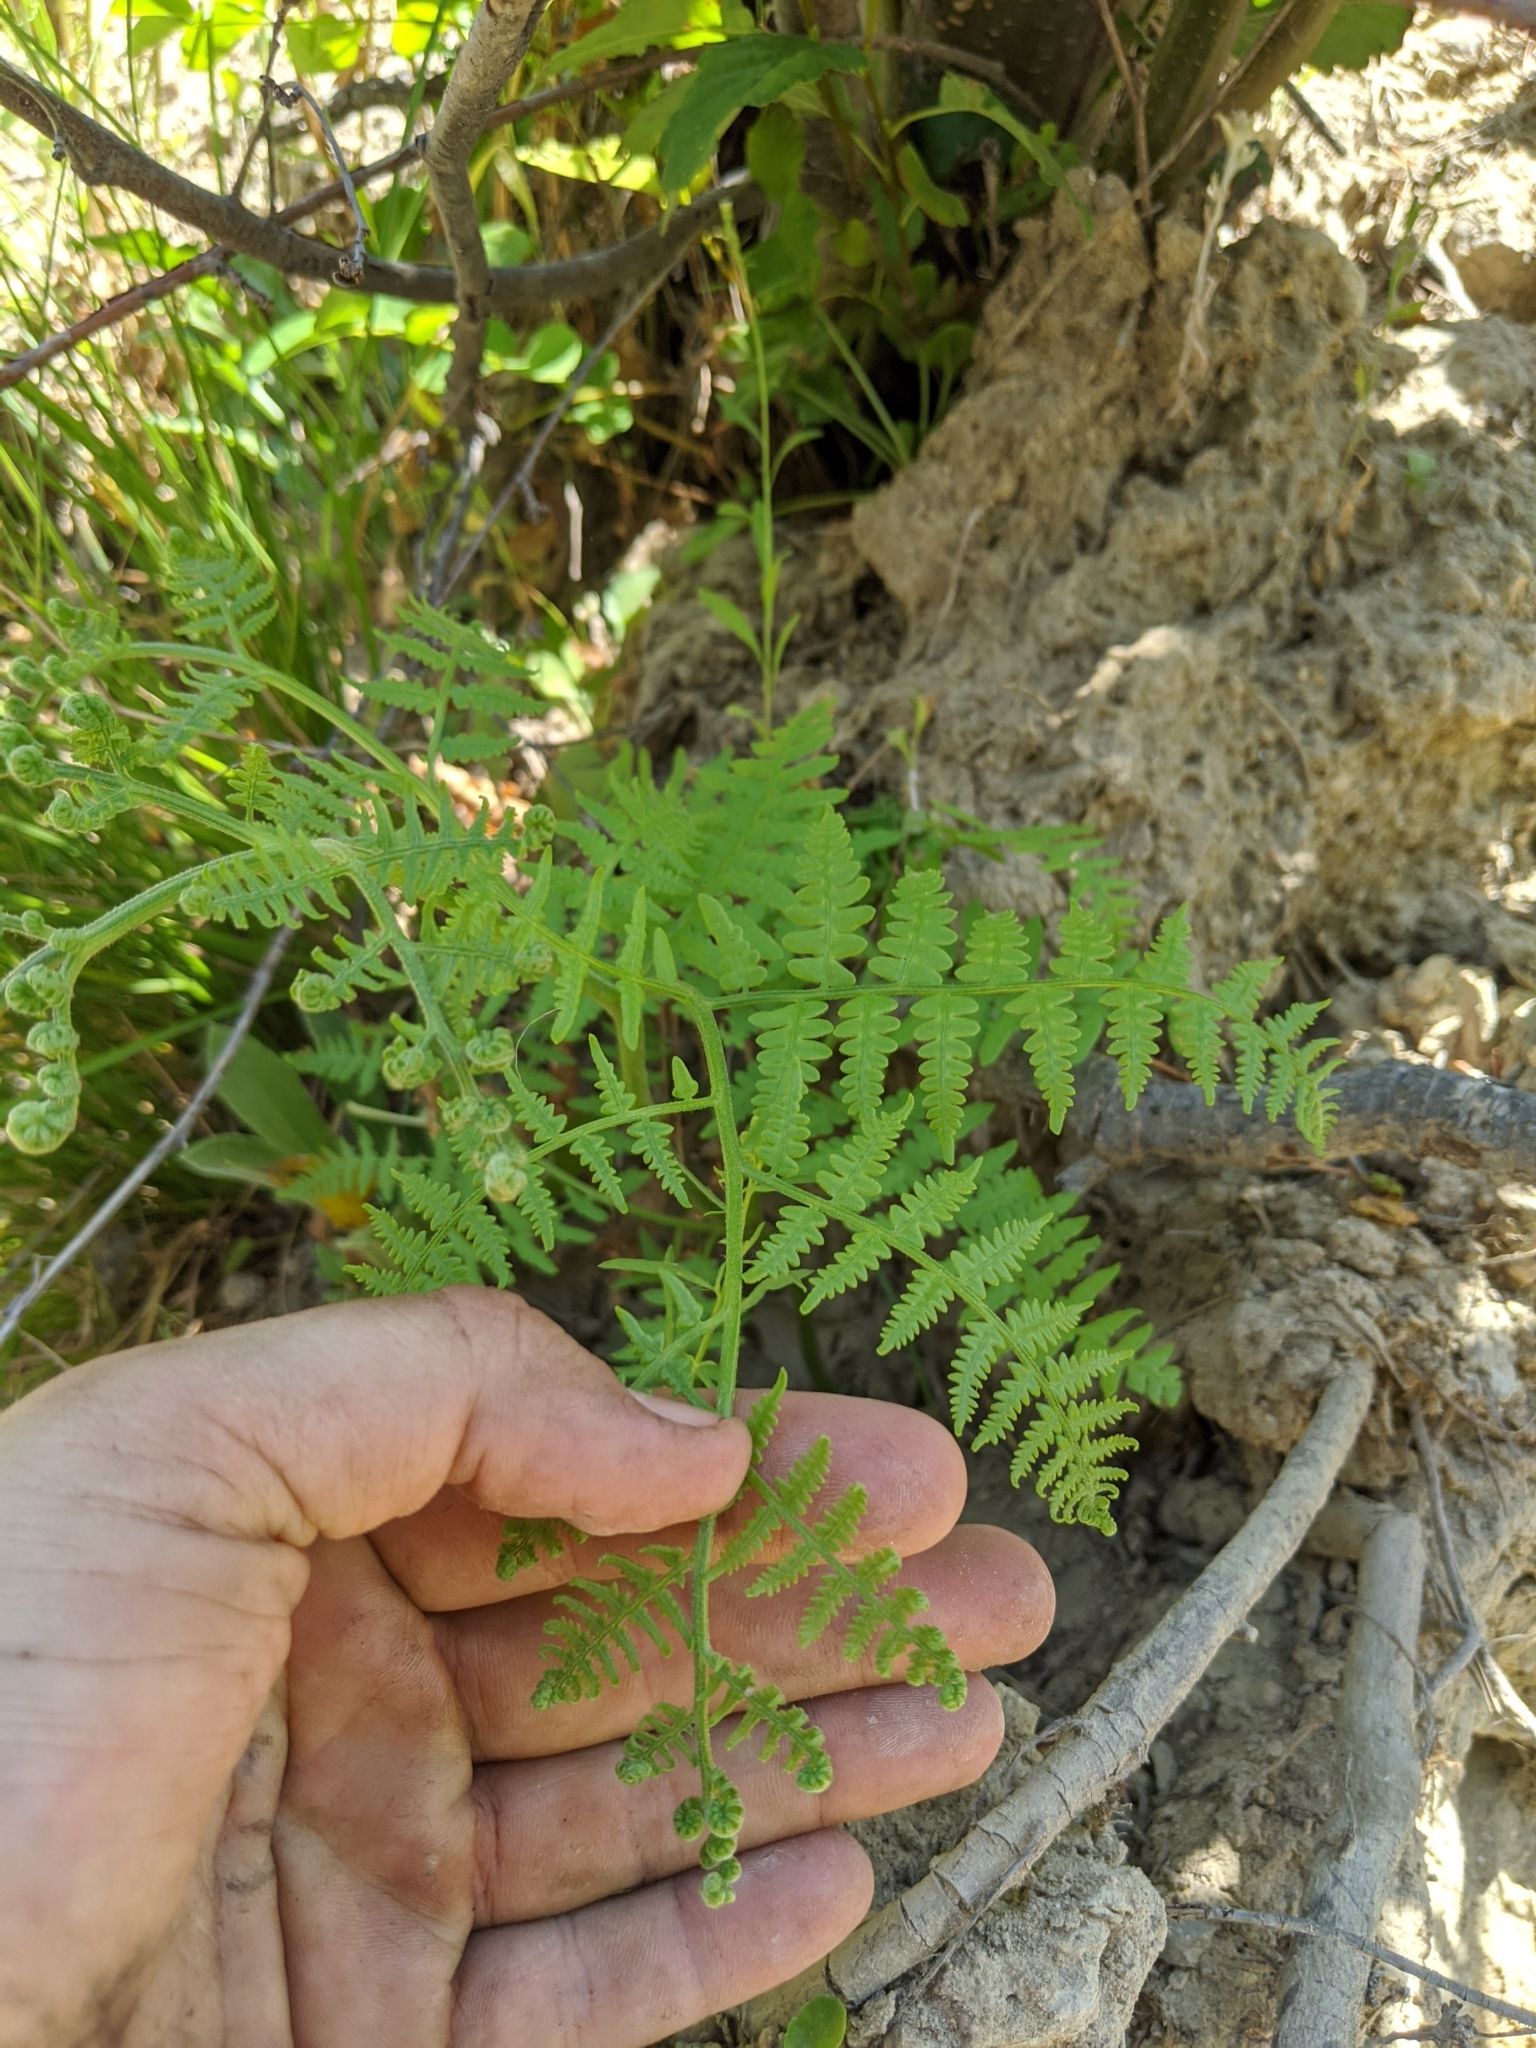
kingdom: Plantae
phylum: Tracheophyta
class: Polypodiopsida
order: Polypodiales
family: Dennstaedtiaceae
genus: Pteridium
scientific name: Pteridium aquilinum
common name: Bracken
